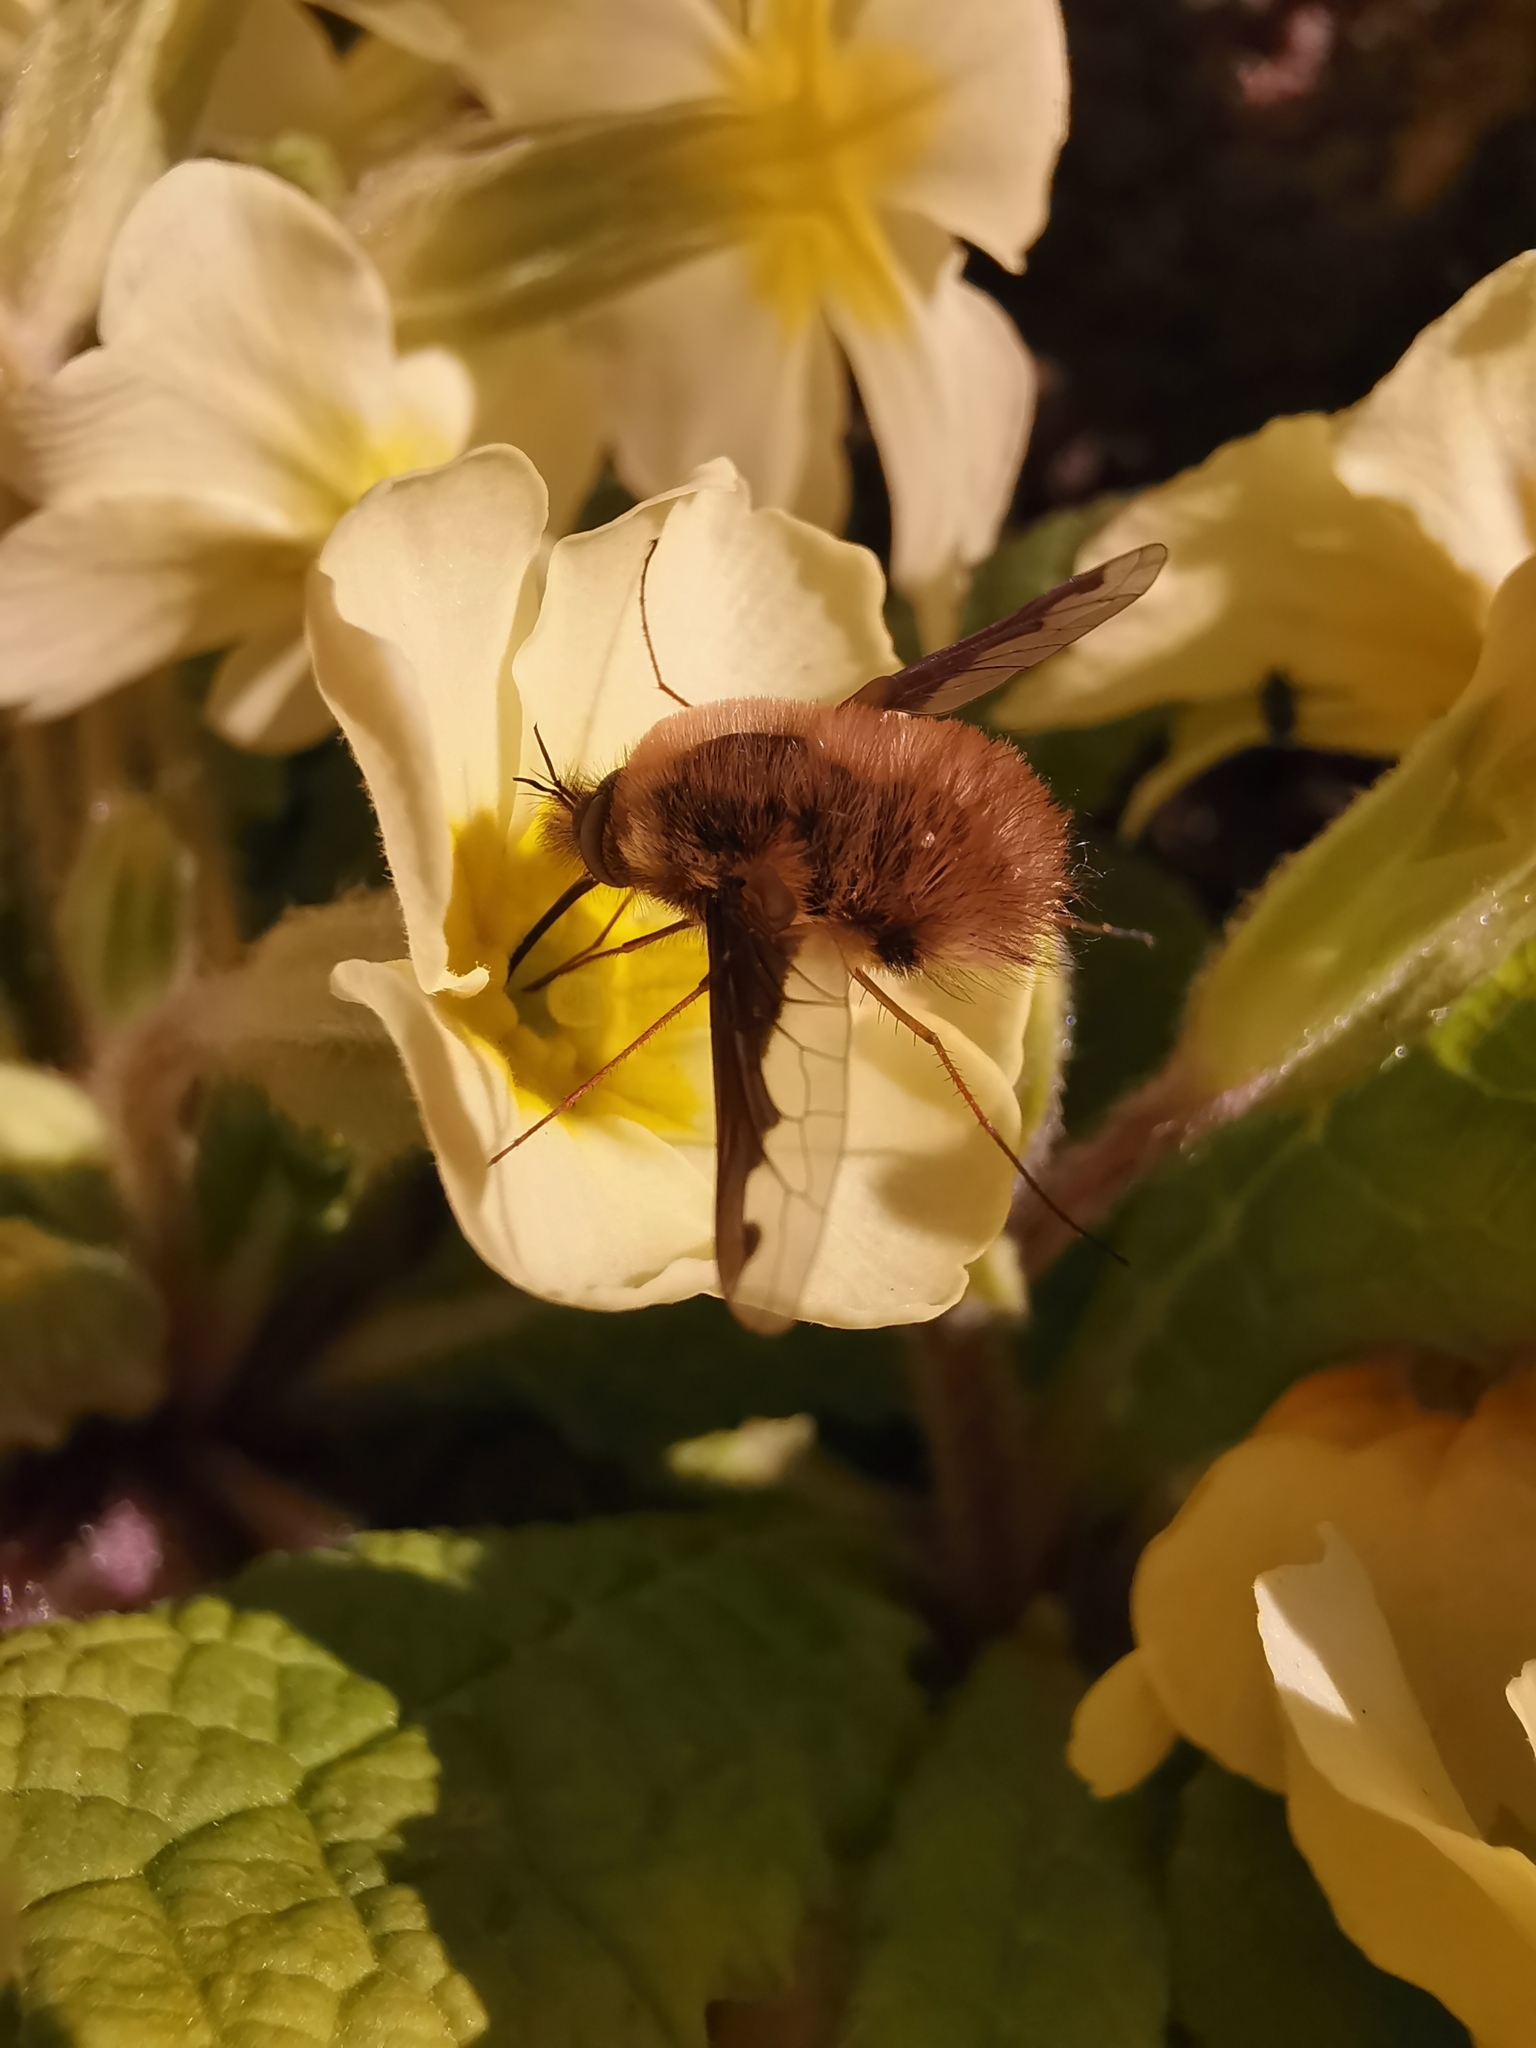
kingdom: Animalia
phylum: Arthropoda
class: Insecta
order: Diptera
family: Bombyliidae
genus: Bombylius
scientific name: Bombylius major
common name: Bee fly
